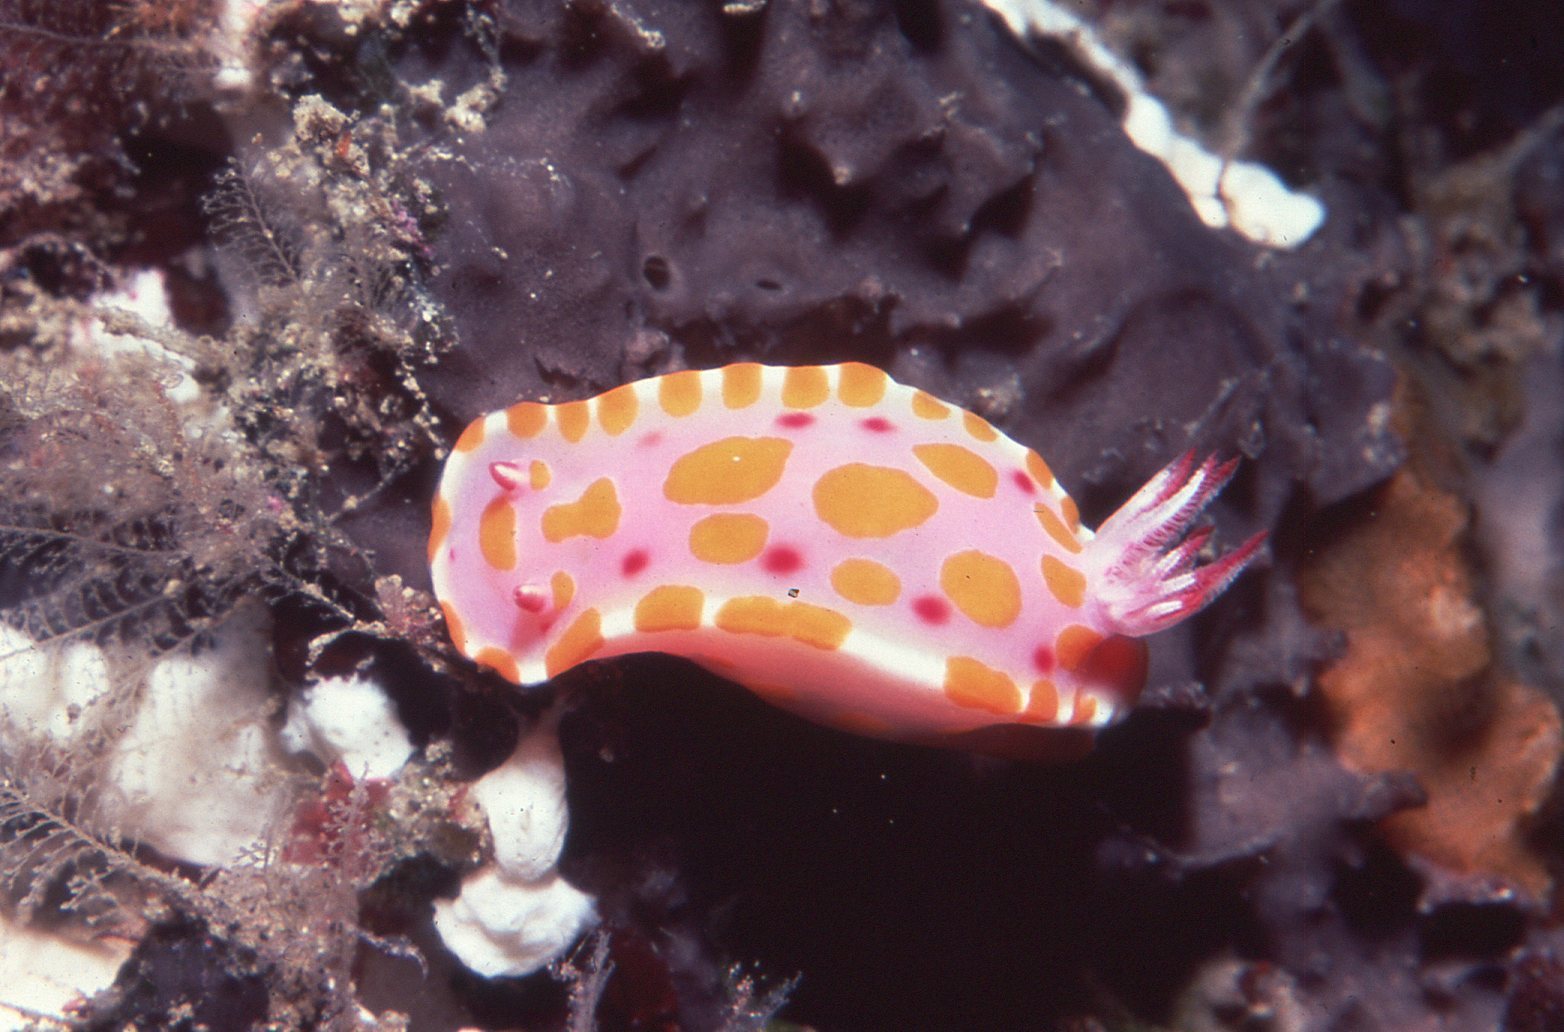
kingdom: Animalia
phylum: Mollusca
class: Gastropoda
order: Nudibranchia
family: Chromodorididae
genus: Ceratosoma
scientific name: Ceratosoma amoenum
